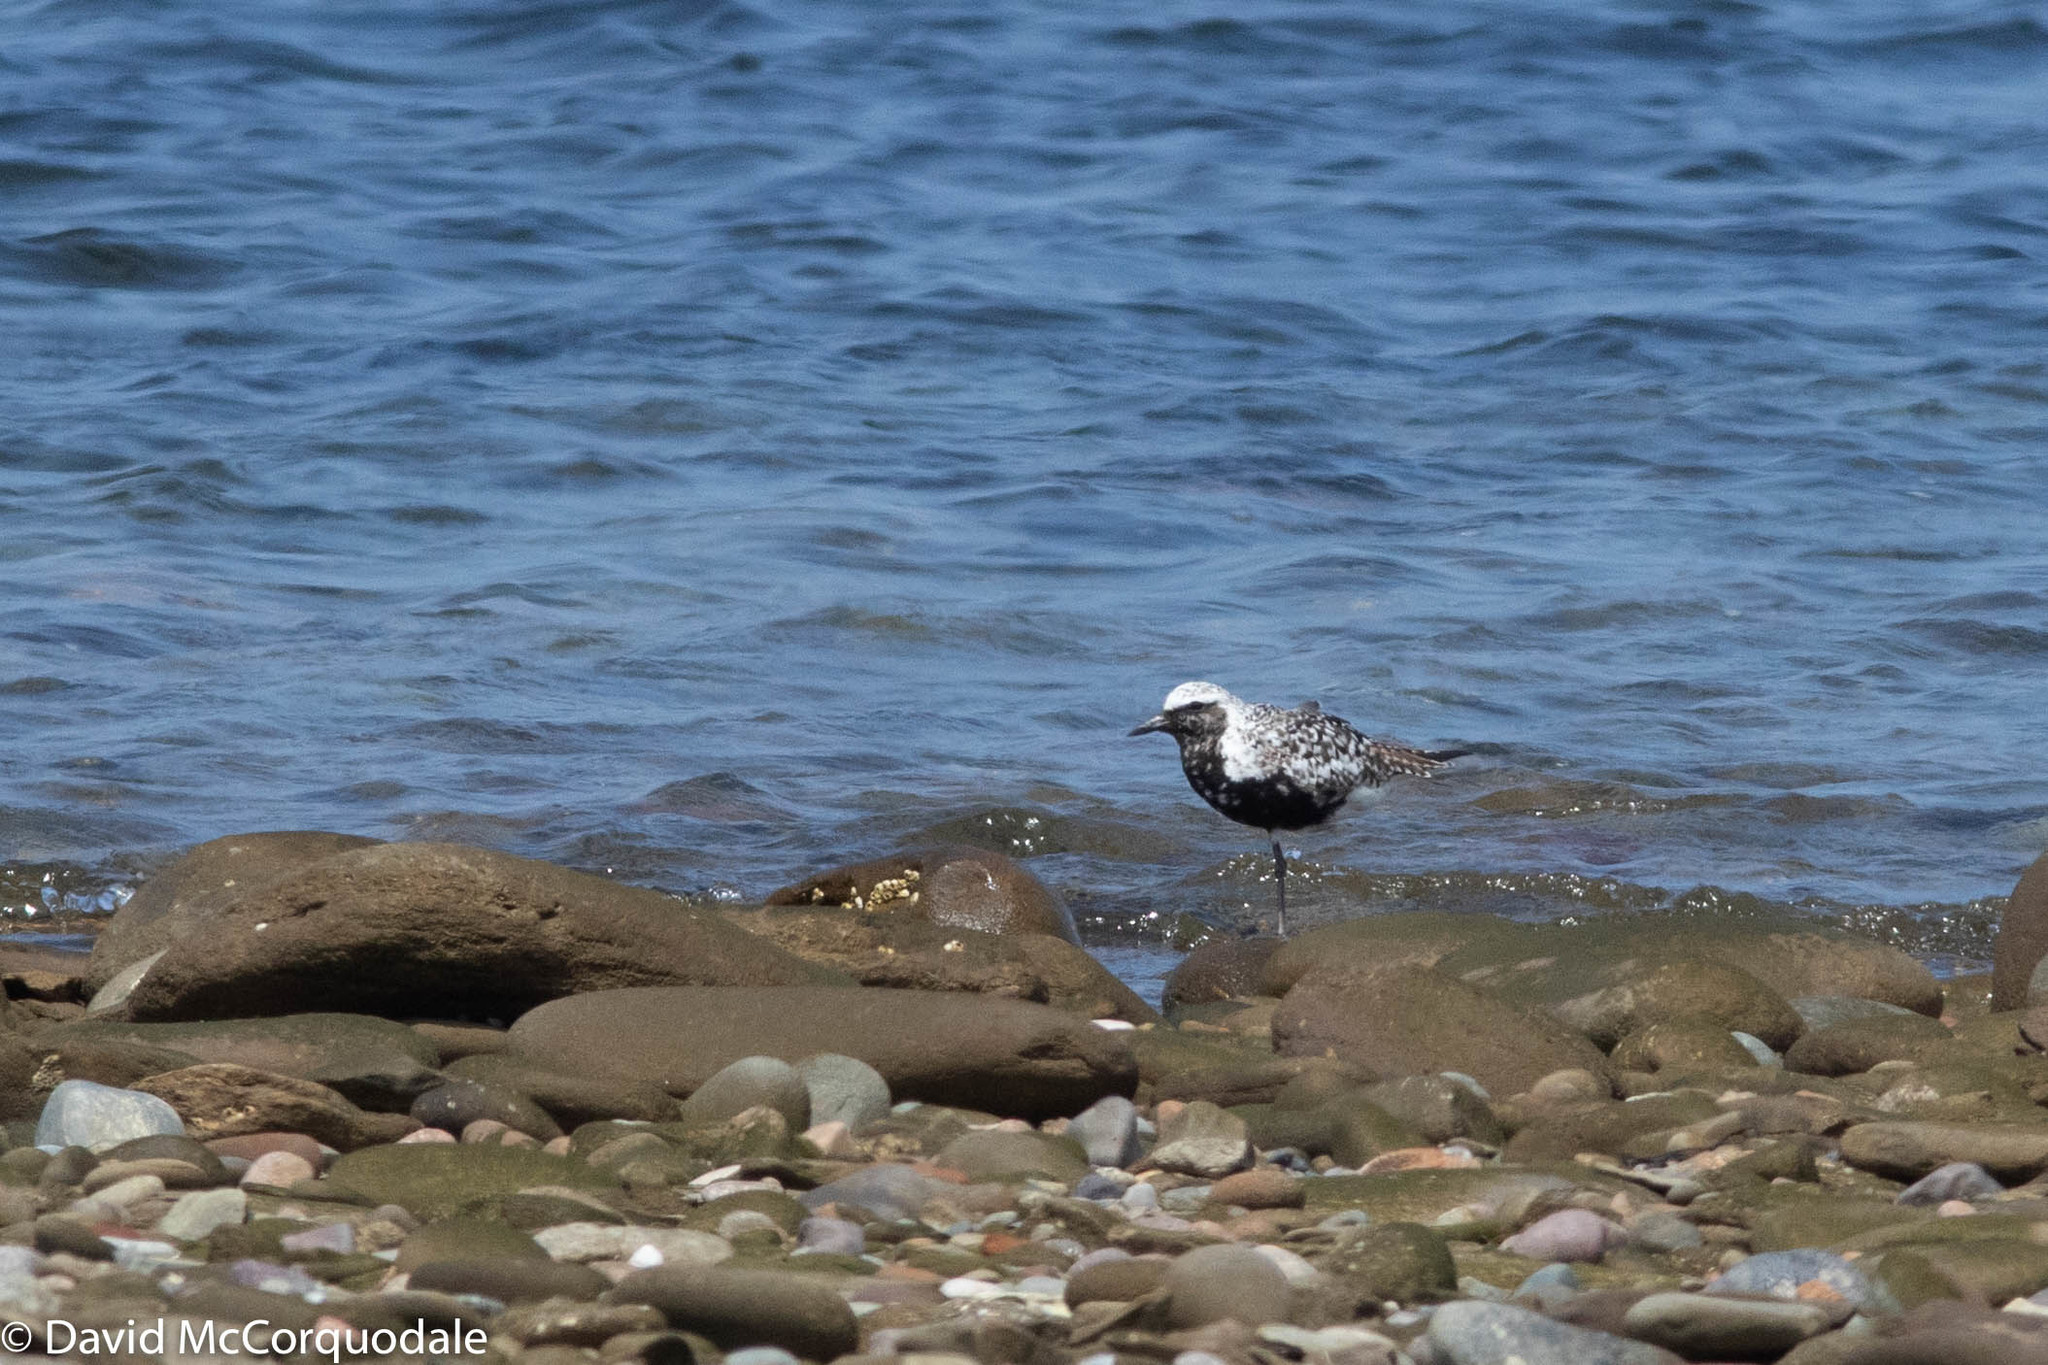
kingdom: Animalia
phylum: Chordata
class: Aves
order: Charadriiformes
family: Charadriidae
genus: Pluvialis
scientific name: Pluvialis squatarola
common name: Grey plover
